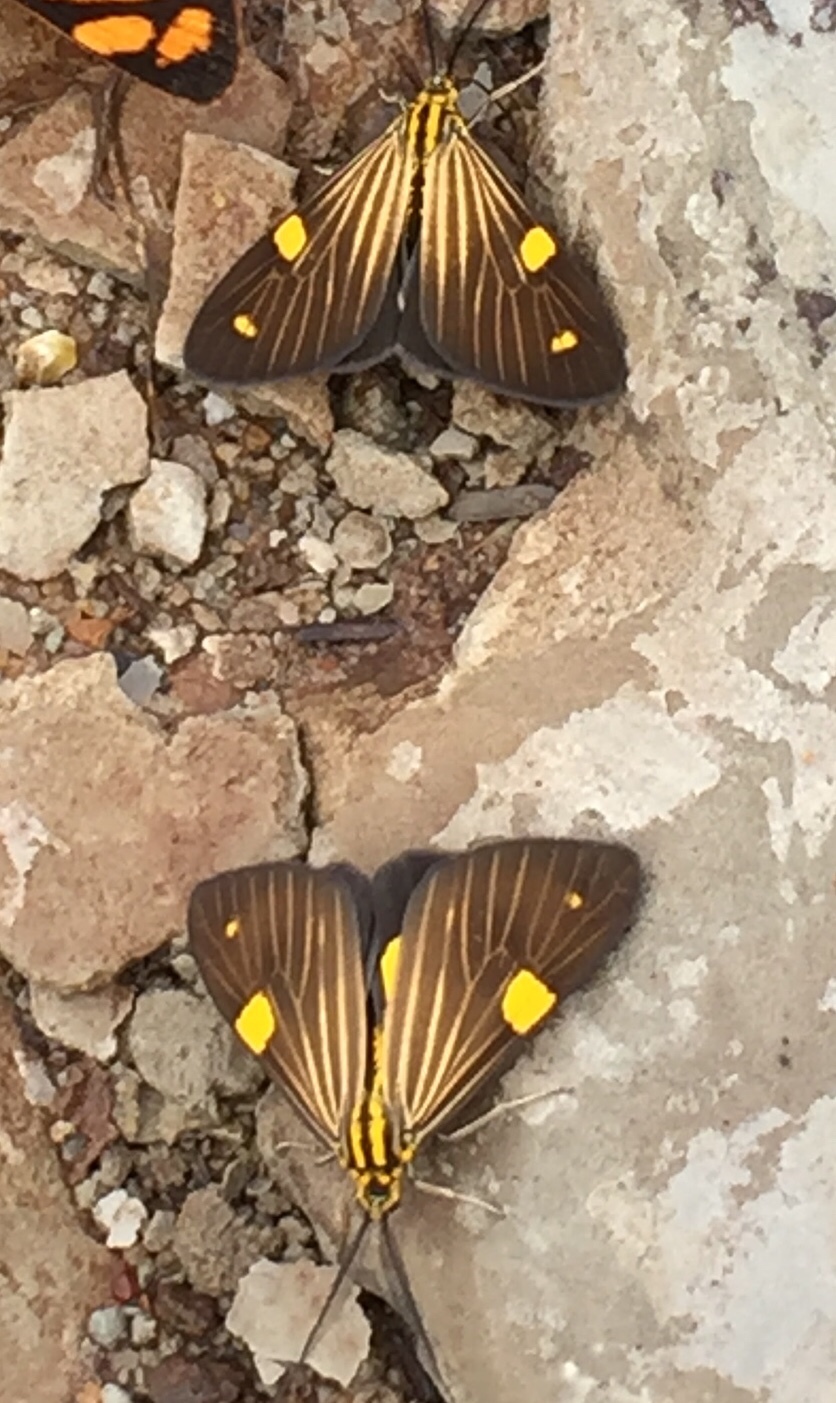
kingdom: Animalia
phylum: Arthropoda
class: Insecta
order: Lepidoptera
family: Notodontidae
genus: Phaeochlaena
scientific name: Phaeochlaena
